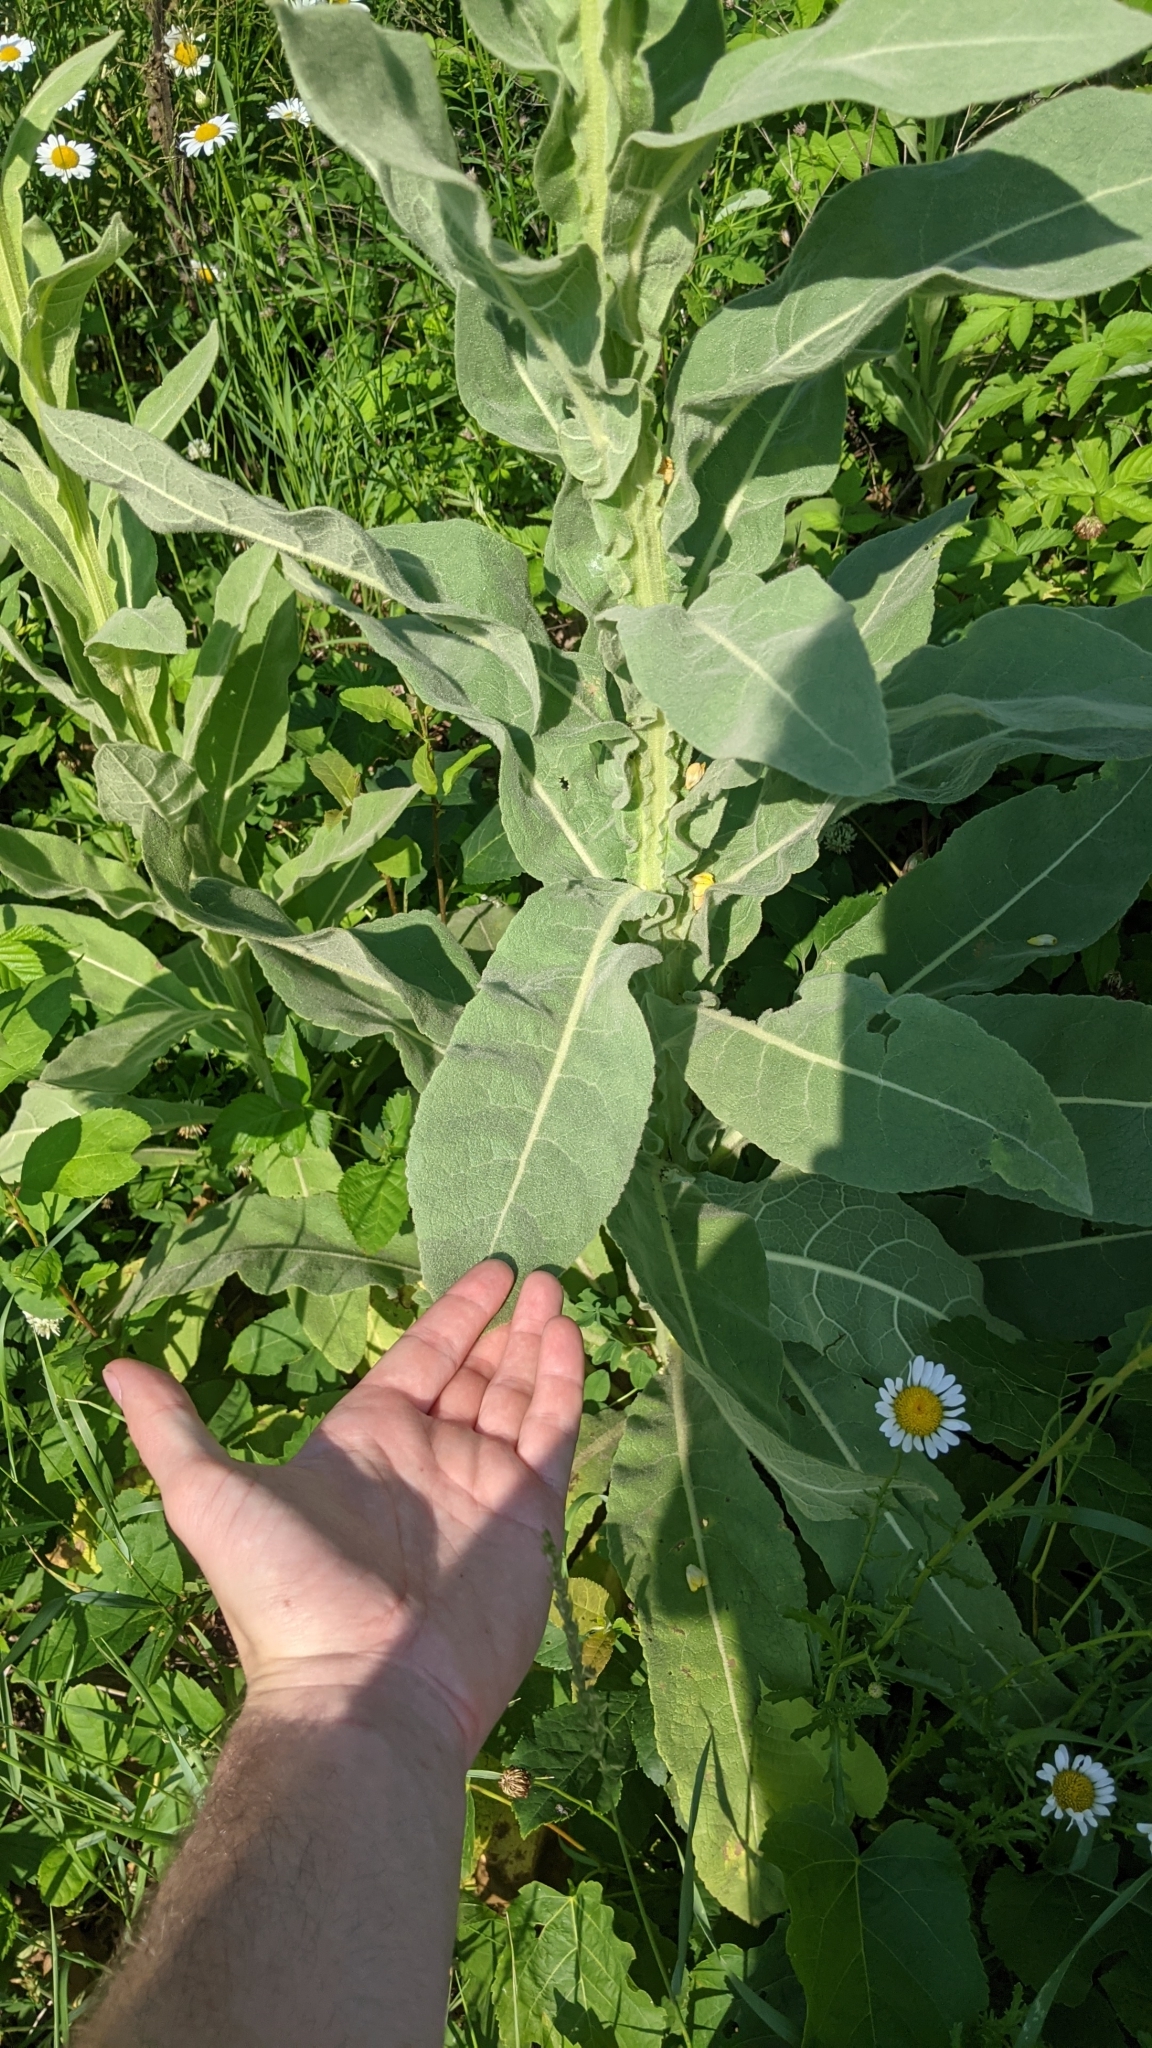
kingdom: Plantae
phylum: Tracheophyta
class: Magnoliopsida
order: Lamiales
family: Scrophulariaceae
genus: Verbascum
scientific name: Verbascum thapsus
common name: Common mullein
